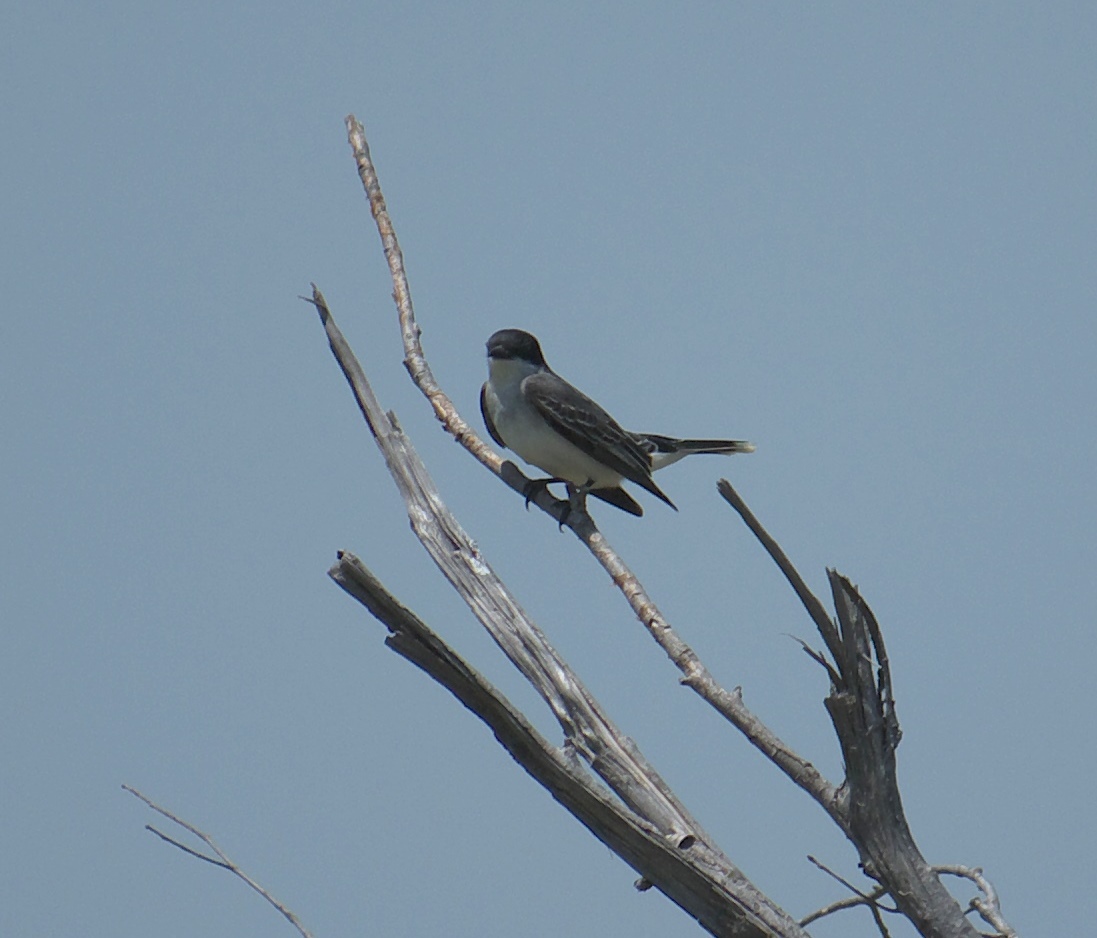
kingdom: Animalia
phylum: Chordata
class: Aves
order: Passeriformes
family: Tyrannidae
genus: Tyrannus
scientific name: Tyrannus tyrannus
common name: Eastern kingbird
